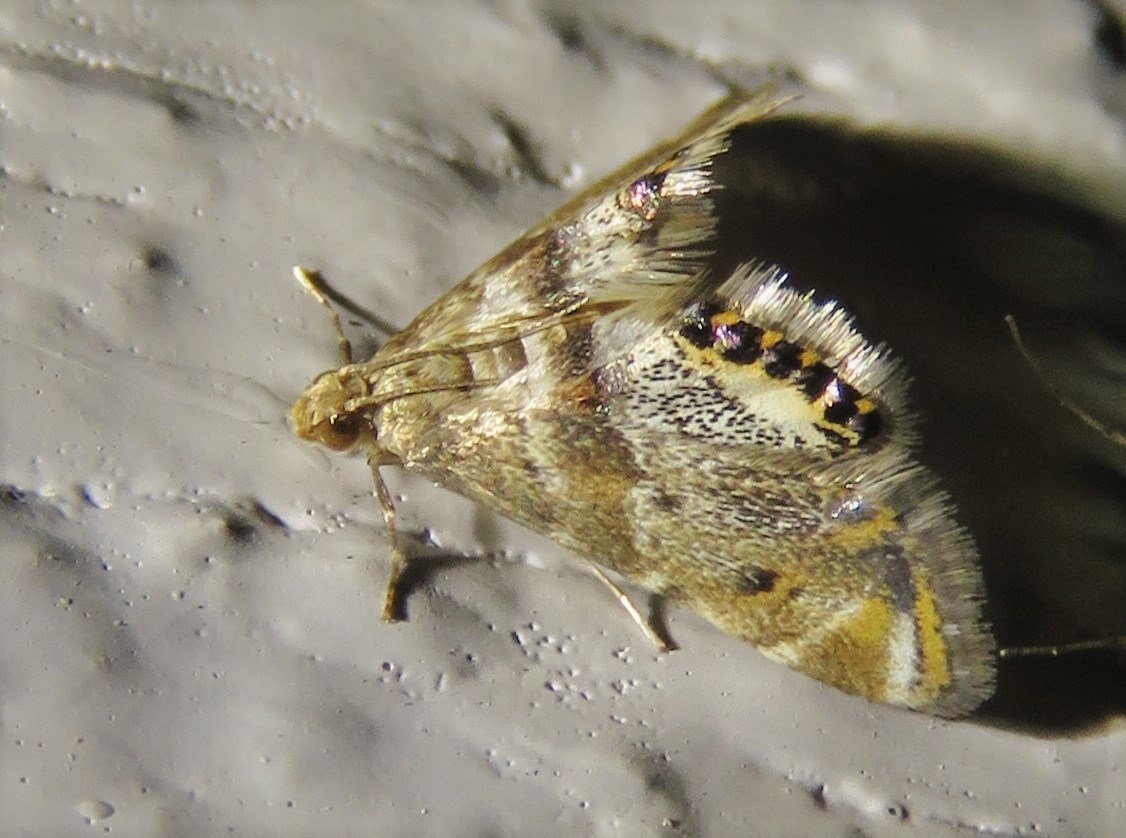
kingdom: Animalia
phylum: Arthropoda
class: Insecta
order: Lepidoptera
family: Crambidae
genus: Petrophila
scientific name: Petrophila fulicalis
